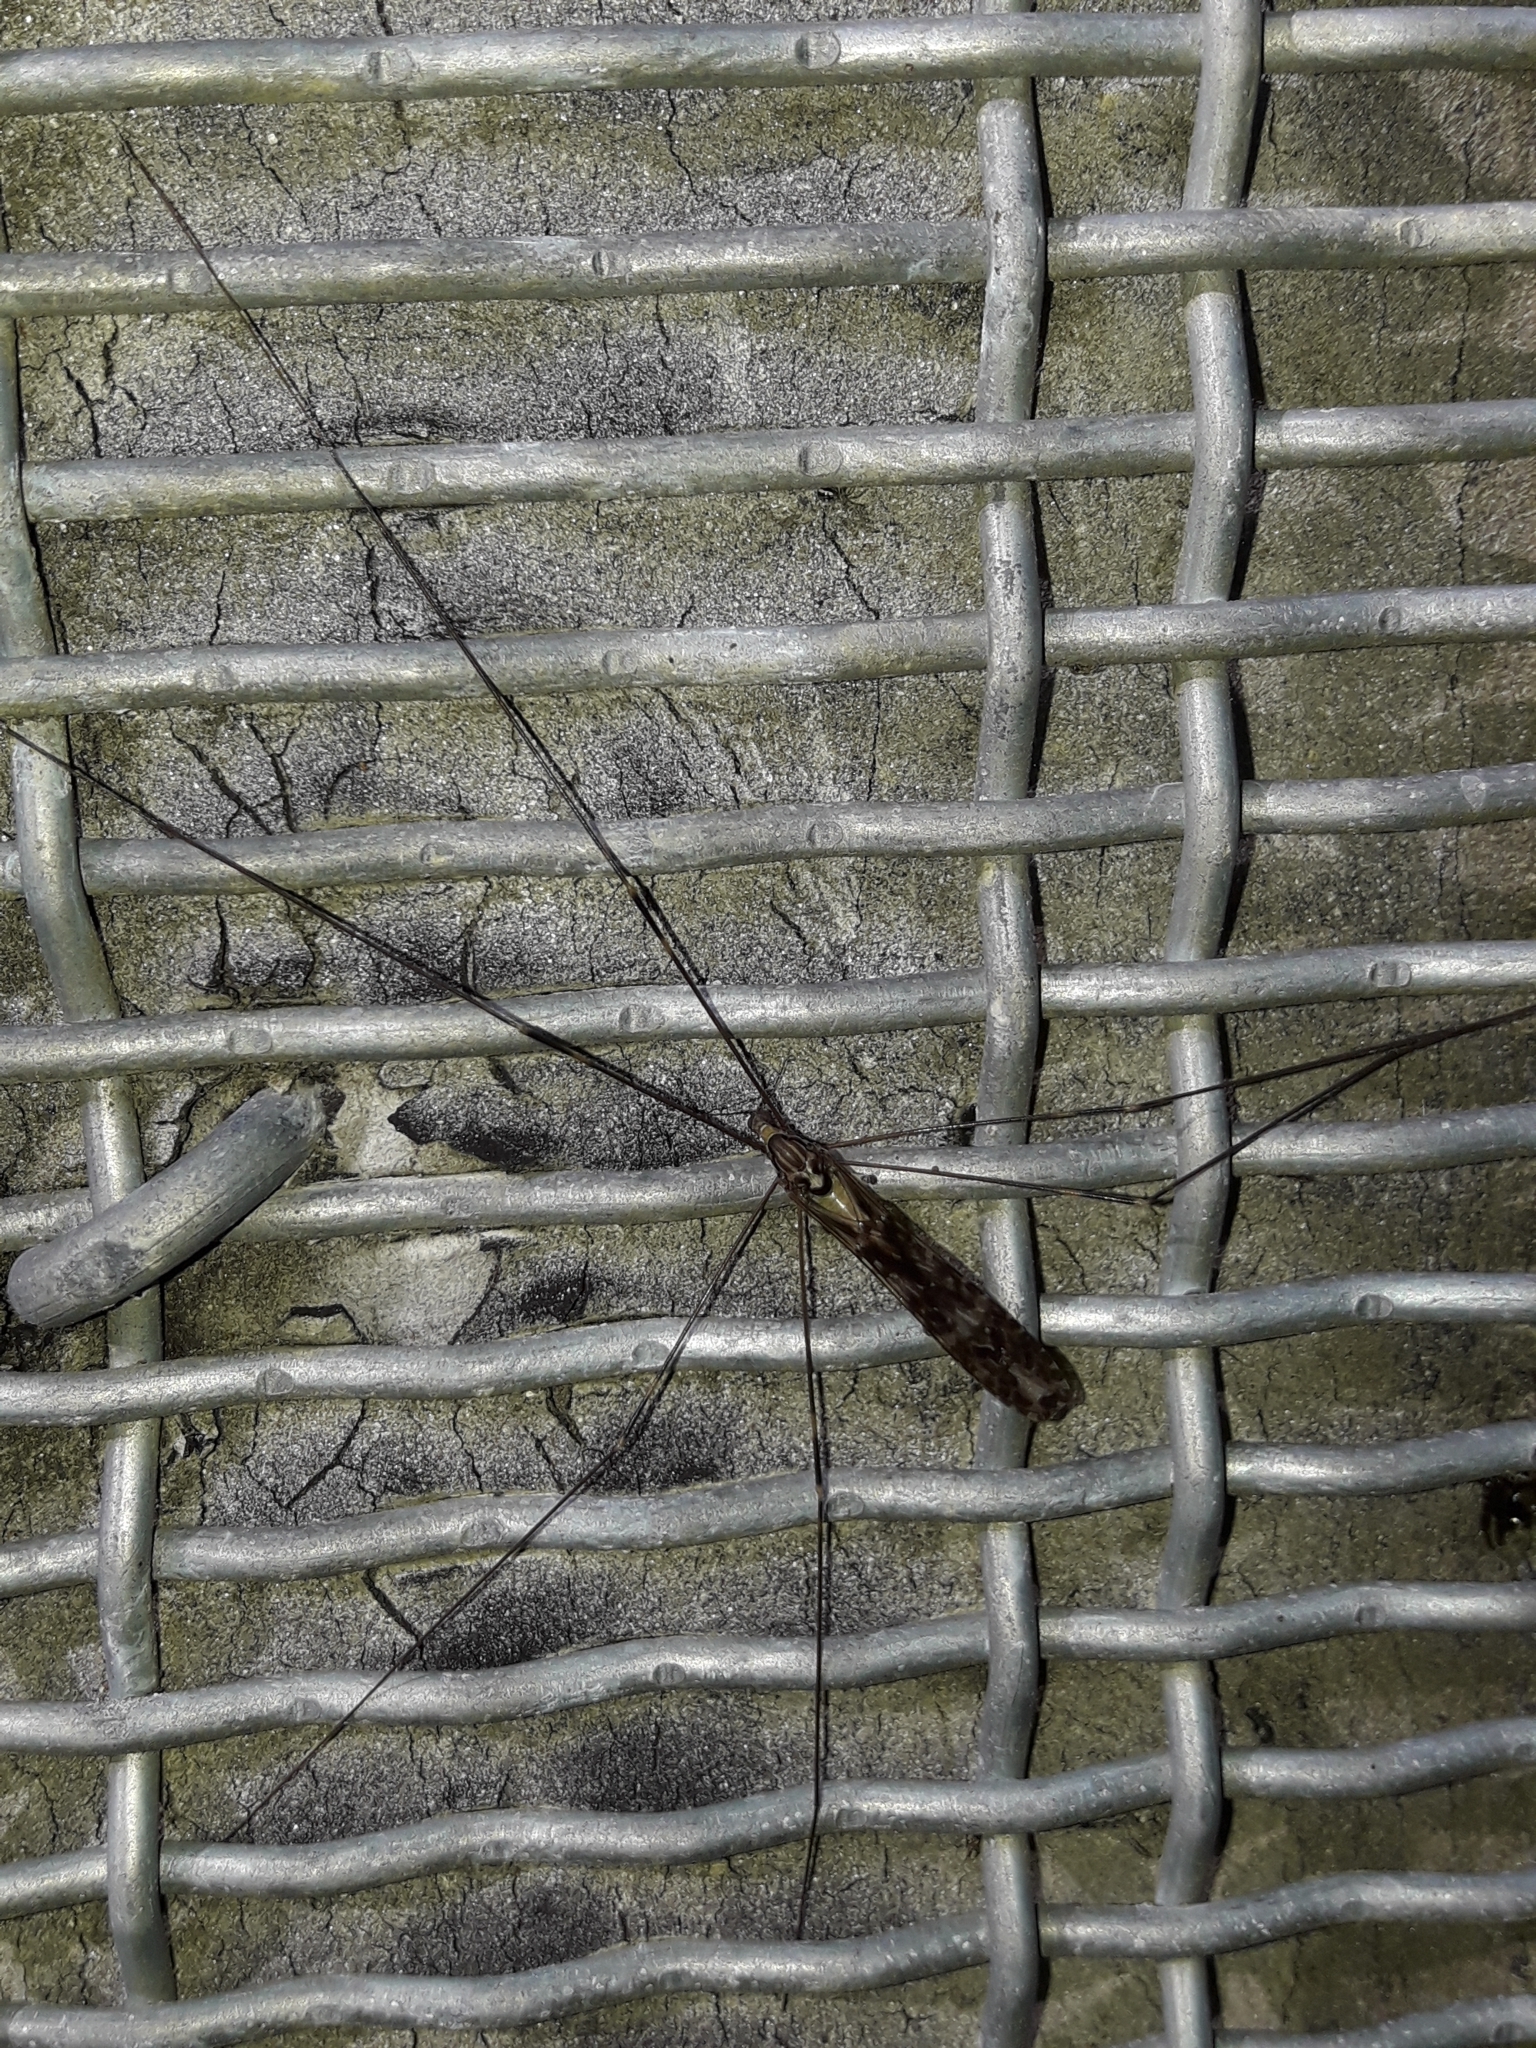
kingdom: Animalia
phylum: Arthropoda
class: Insecta
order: Diptera
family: Limoniidae
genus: Discobola
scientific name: Discobola dohrni
